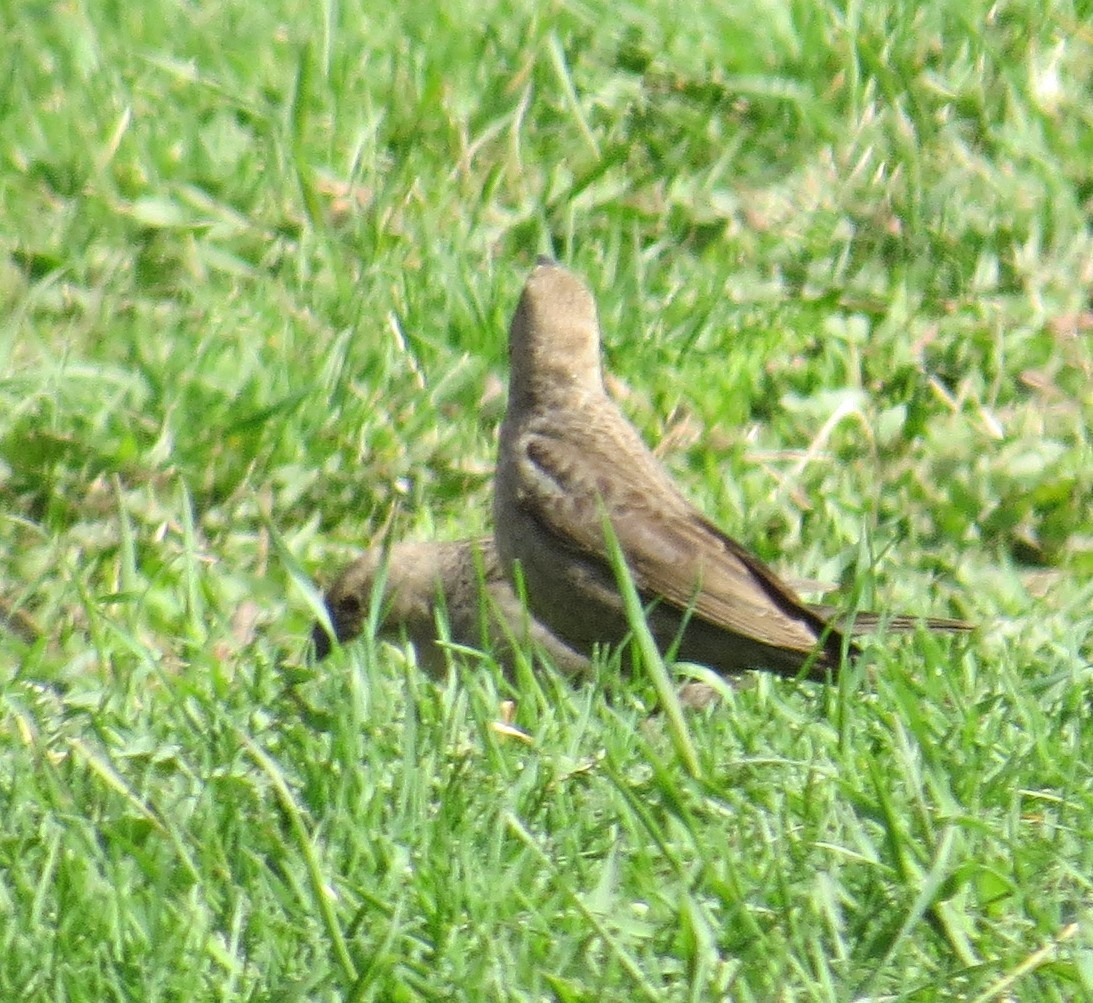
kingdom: Animalia
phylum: Chordata
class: Aves
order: Passeriformes
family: Icteridae
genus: Molothrus
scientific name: Molothrus ater
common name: Brown-headed cowbird
